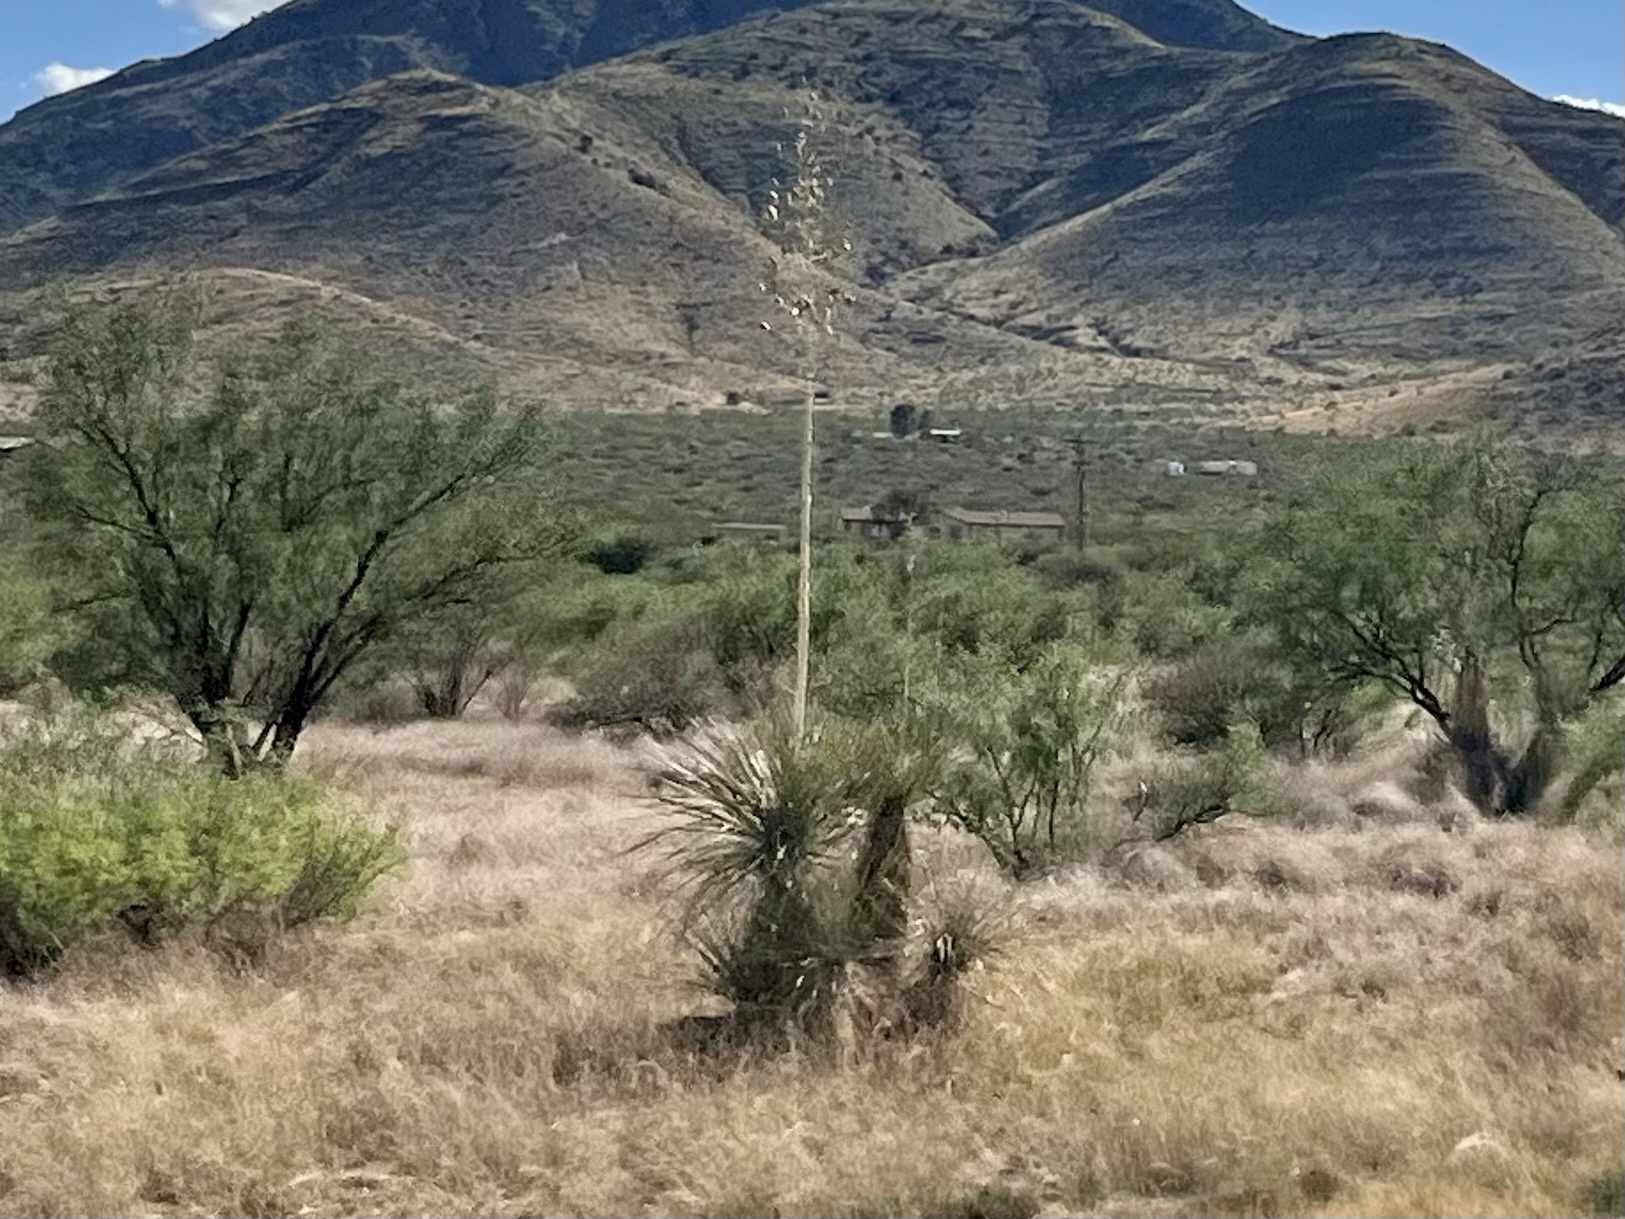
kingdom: Plantae
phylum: Tracheophyta
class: Liliopsida
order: Asparagales
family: Asparagaceae
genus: Yucca
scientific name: Yucca elata
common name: Palmella
